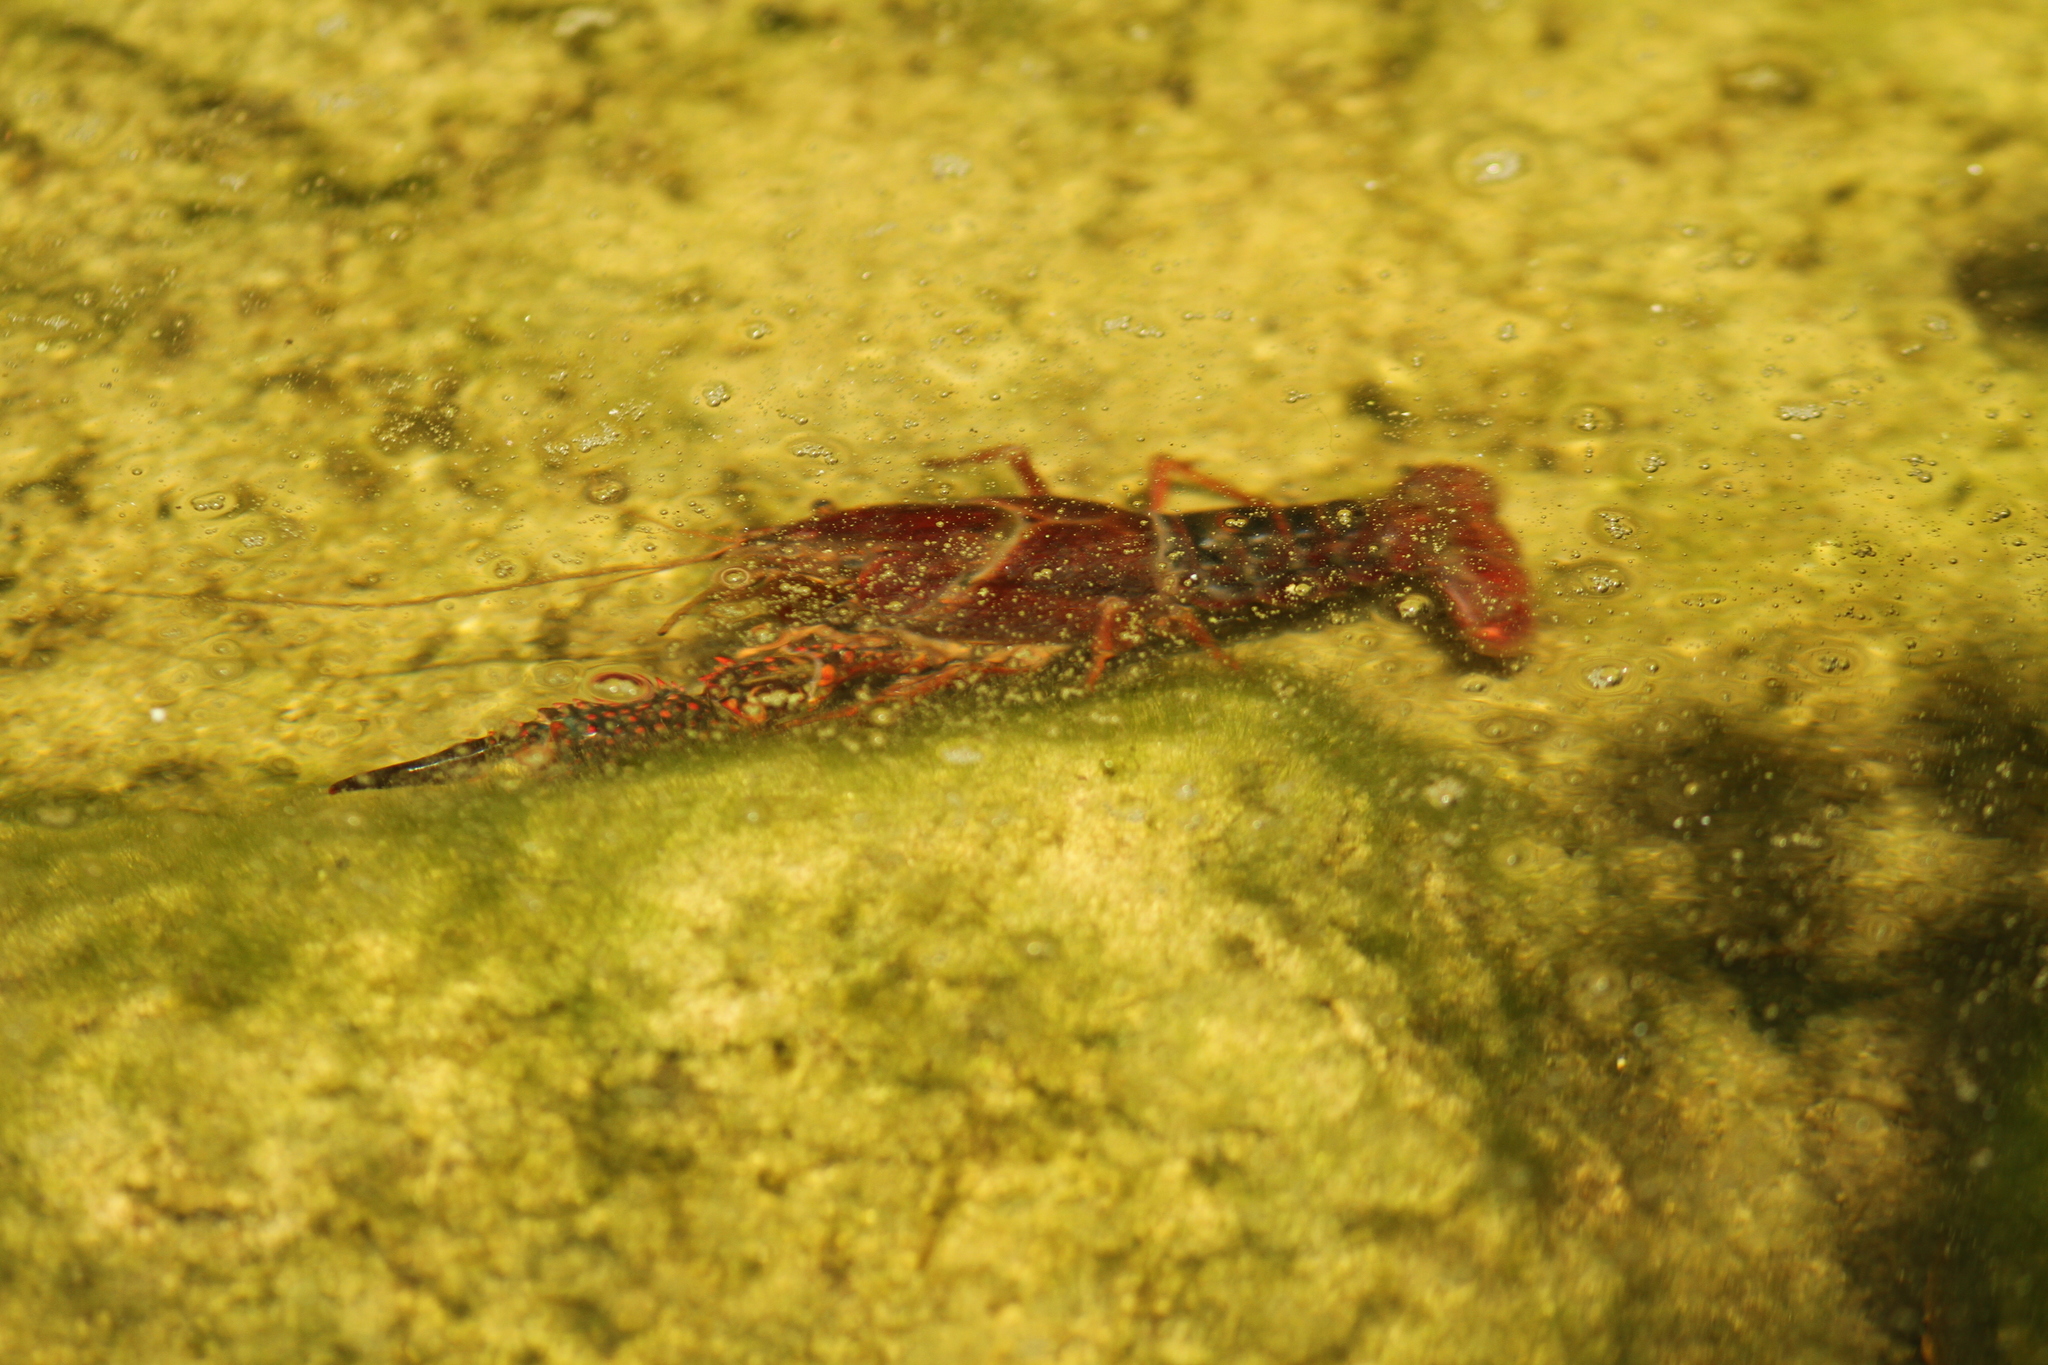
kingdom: Animalia
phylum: Arthropoda
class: Malacostraca
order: Decapoda
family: Cambaridae
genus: Procambarus
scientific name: Procambarus clarkii
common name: Red swamp crayfish
